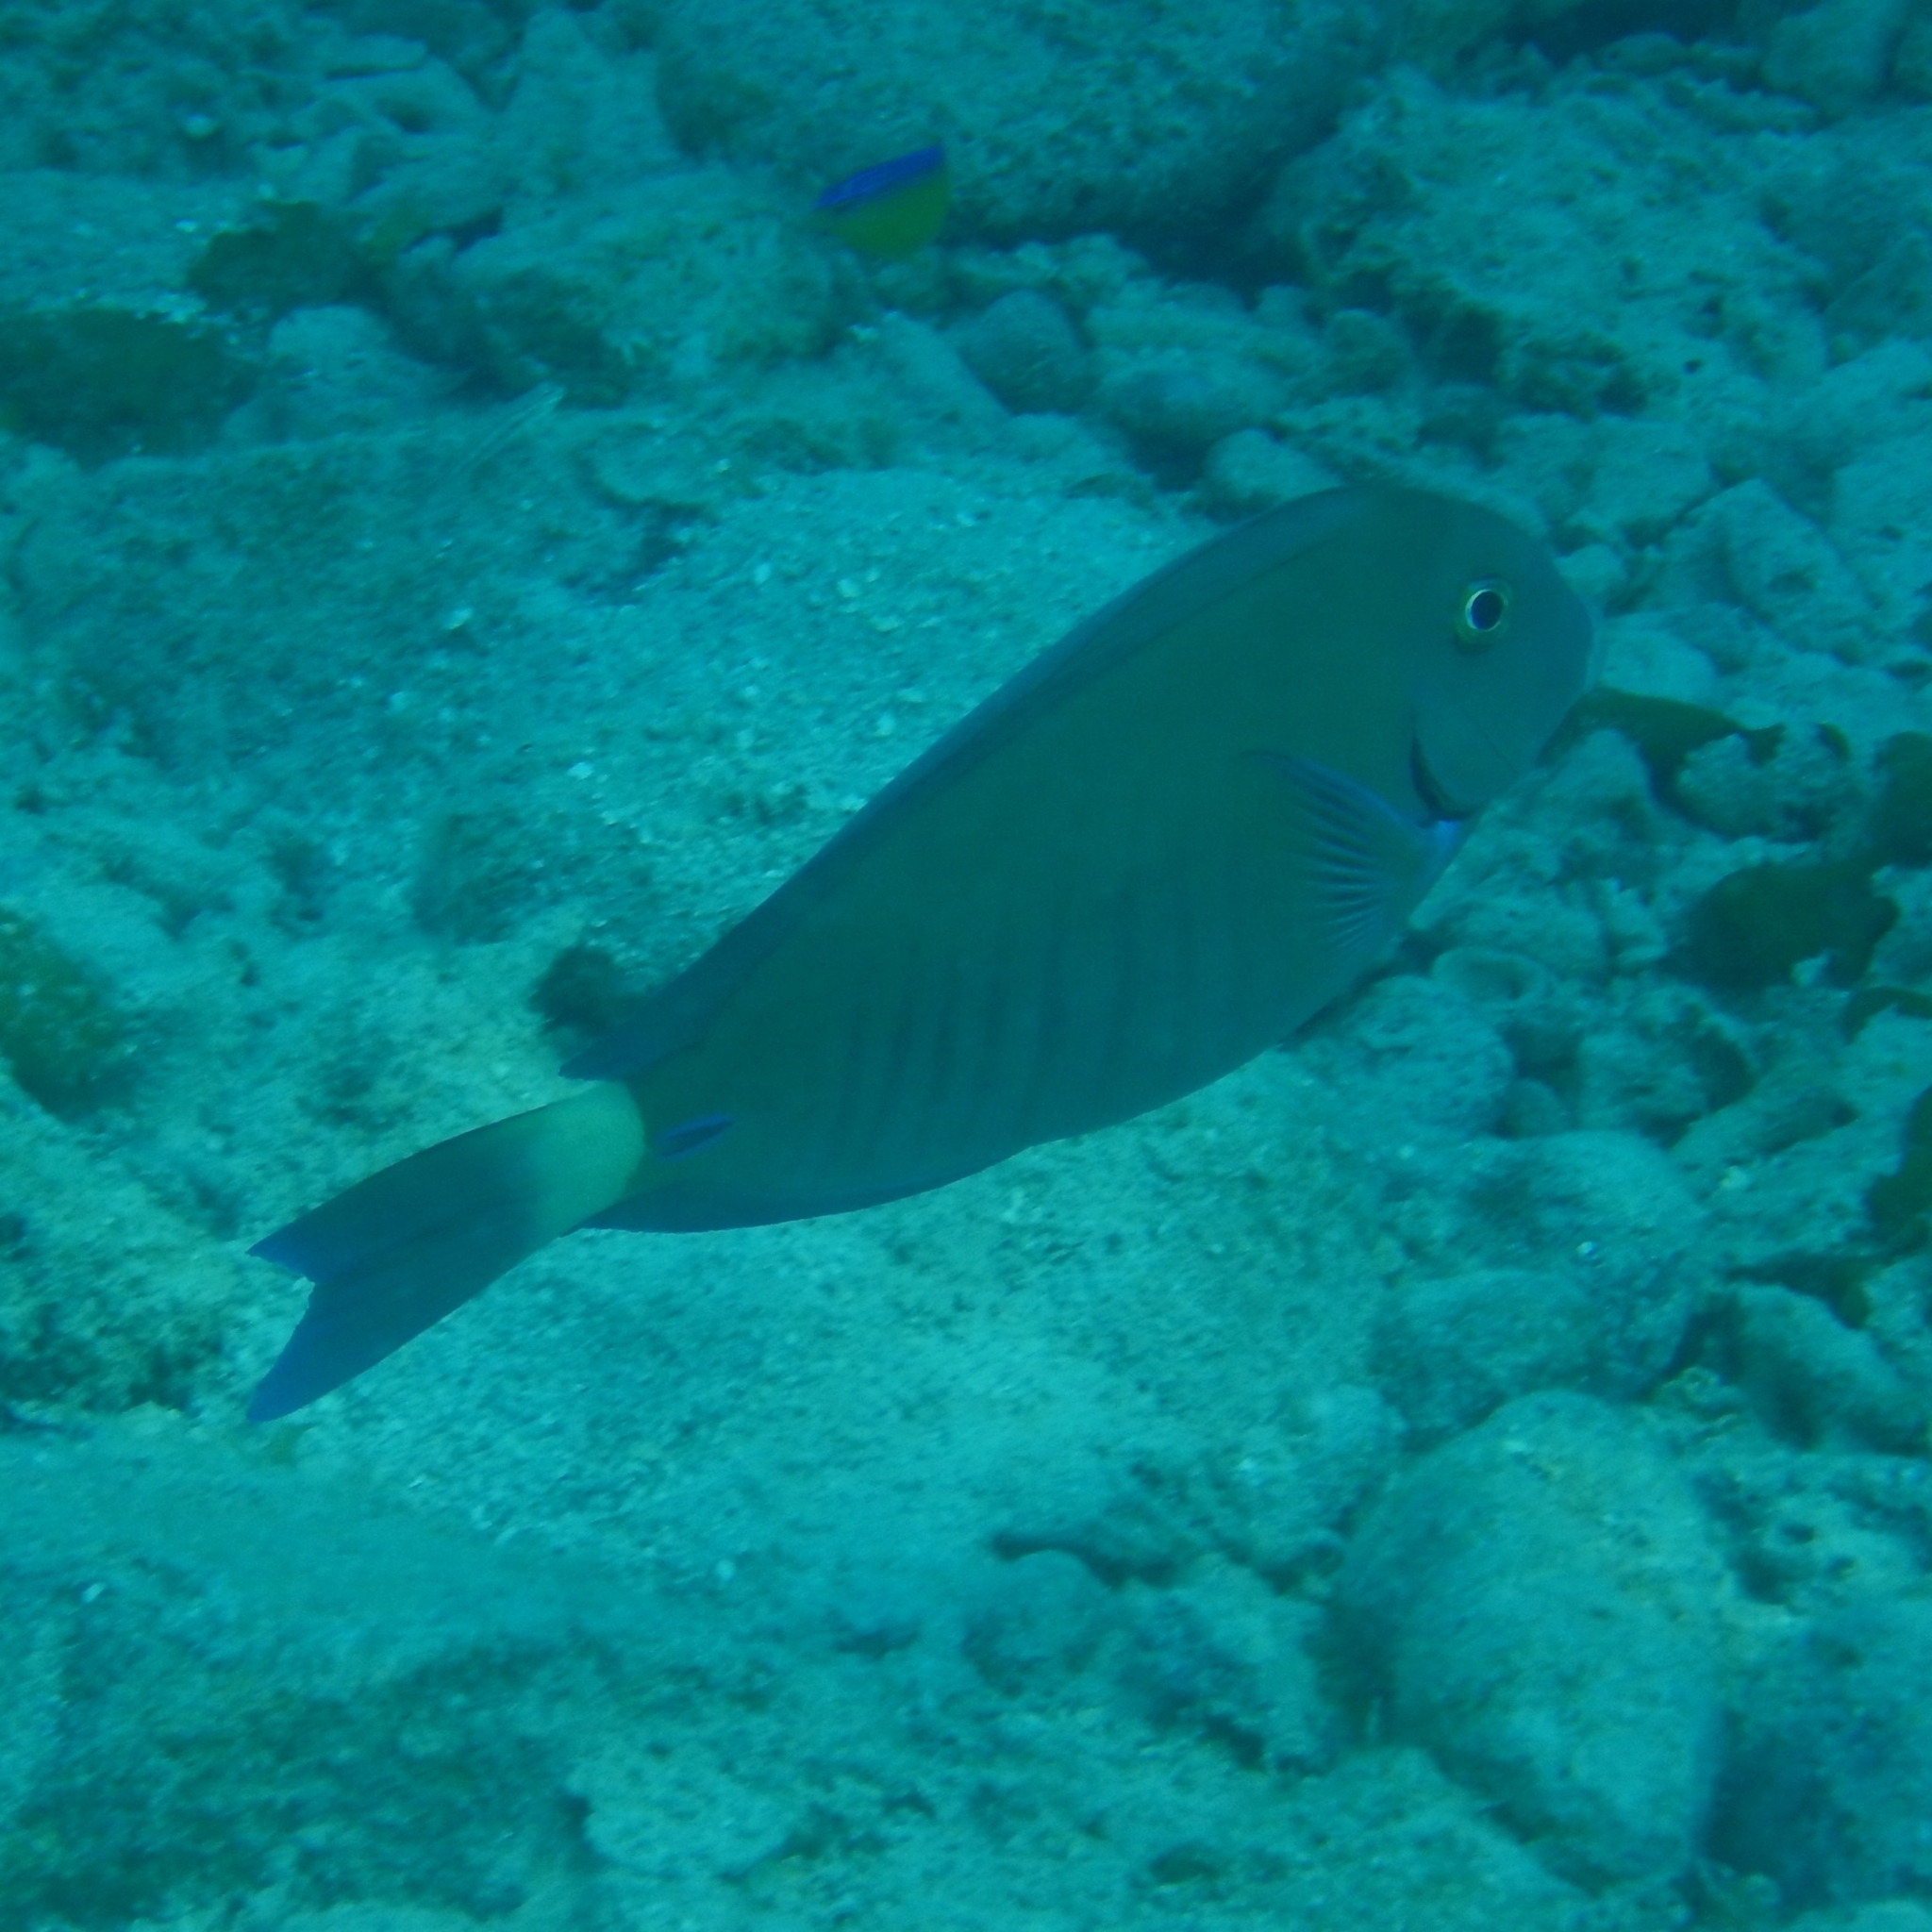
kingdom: Animalia
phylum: Chordata
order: Perciformes
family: Acanthuridae
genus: Acanthurus
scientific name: Acanthurus chirurgus
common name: Doctorfish
